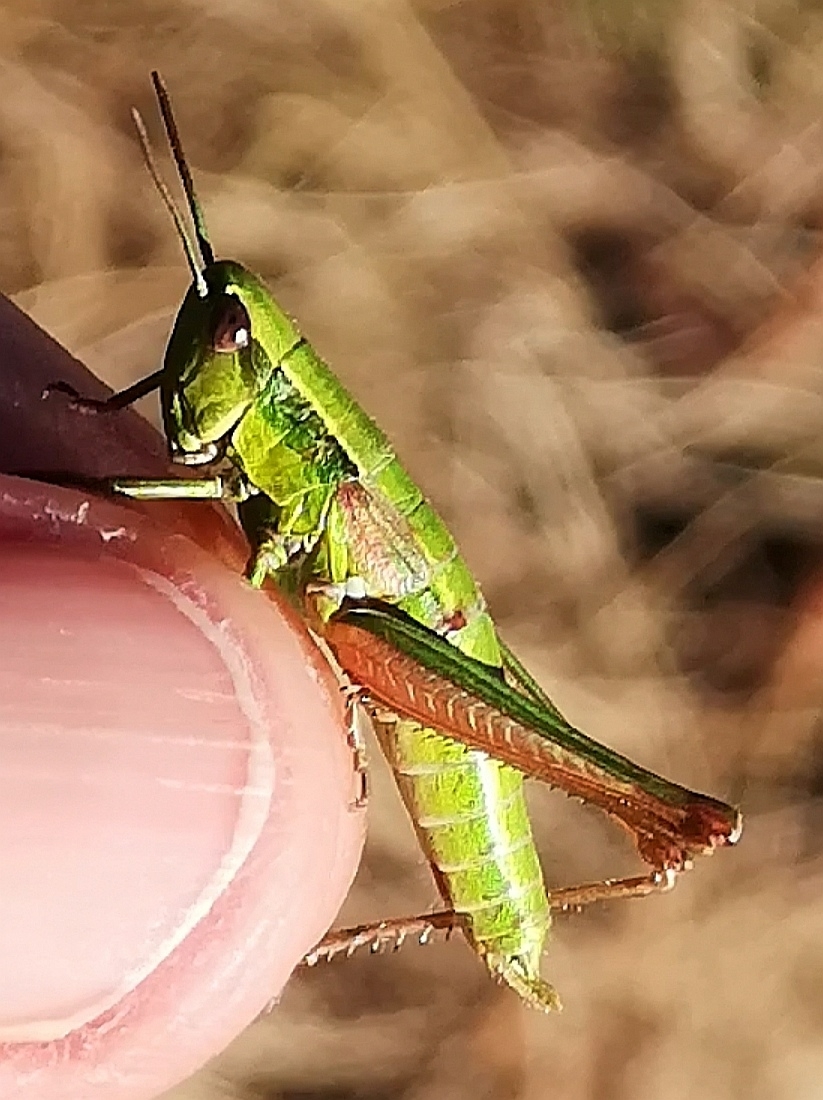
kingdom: Animalia
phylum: Arthropoda
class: Insecta
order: Orthoptera
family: Acrididae
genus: Euthystira
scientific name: Euthystira brachyptera
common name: Small gold grasshopper
